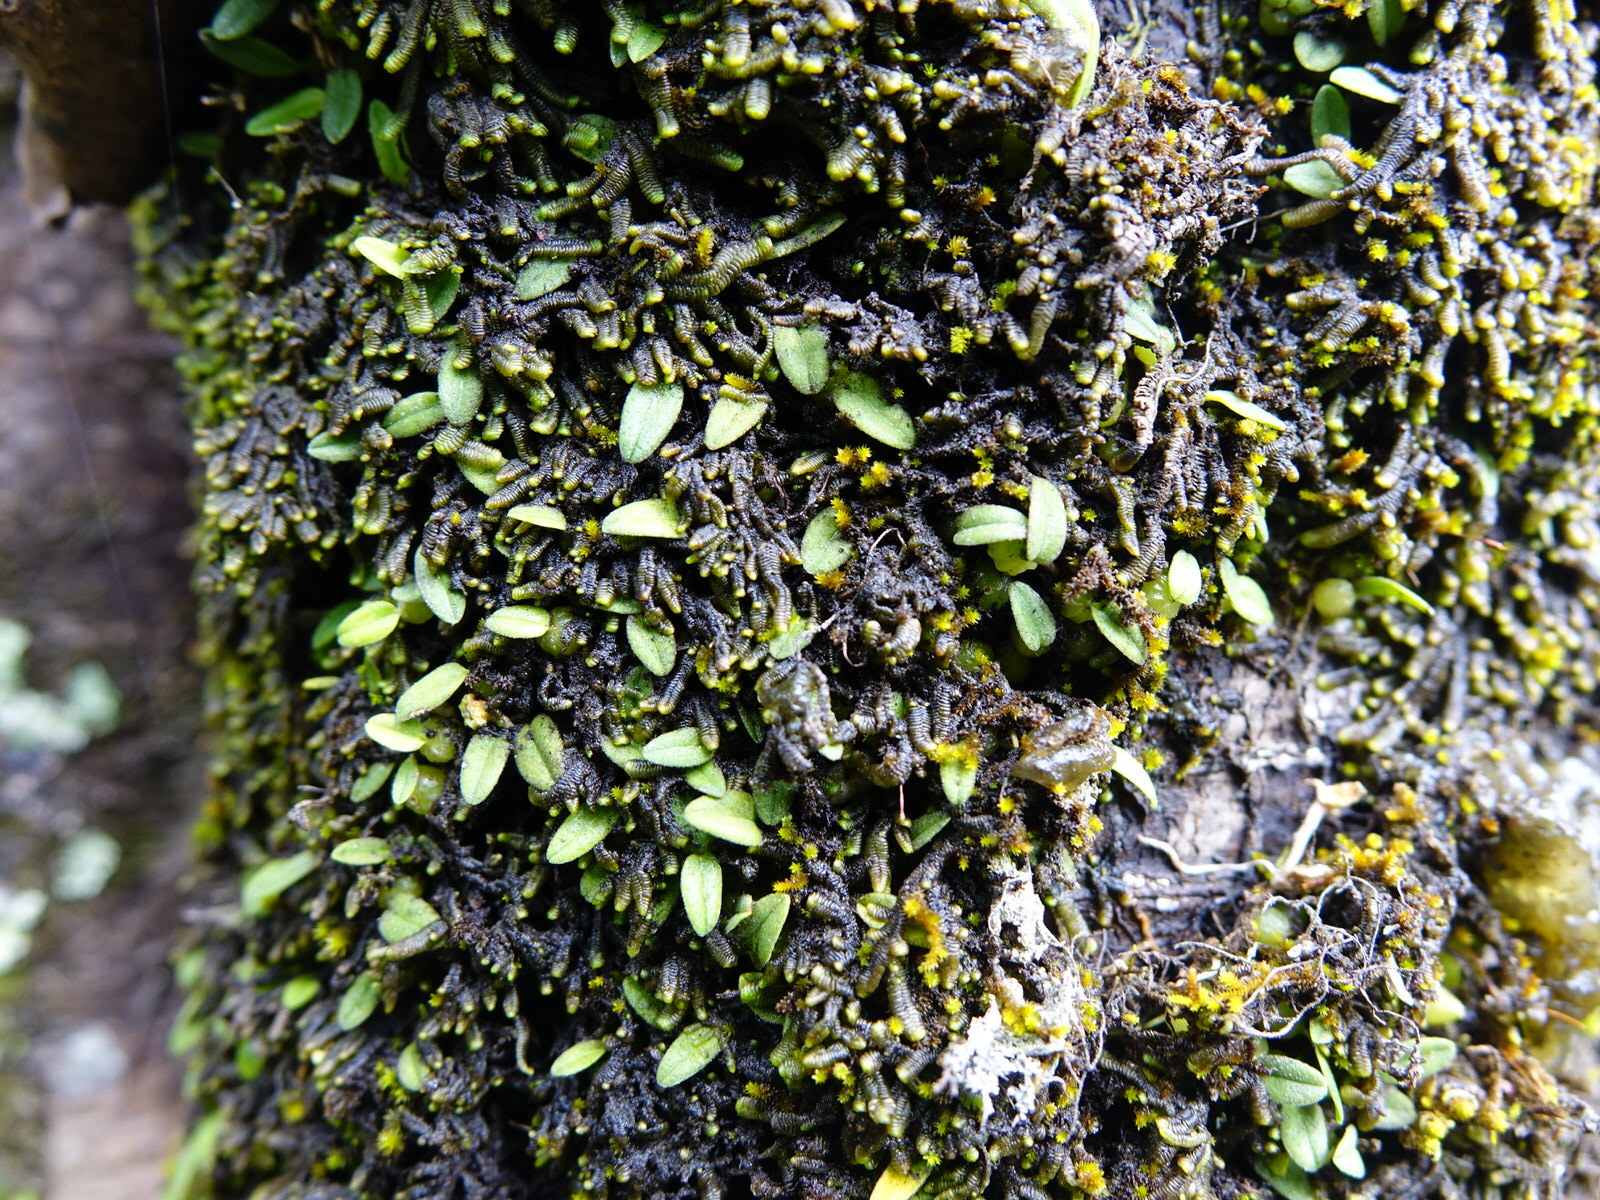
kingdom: Plantae
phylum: Tracheophyta
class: Liliopsida
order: Asparagales
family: Orchidaceae
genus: Bulbophyllum
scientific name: Bulbophyllum pygmaeum
